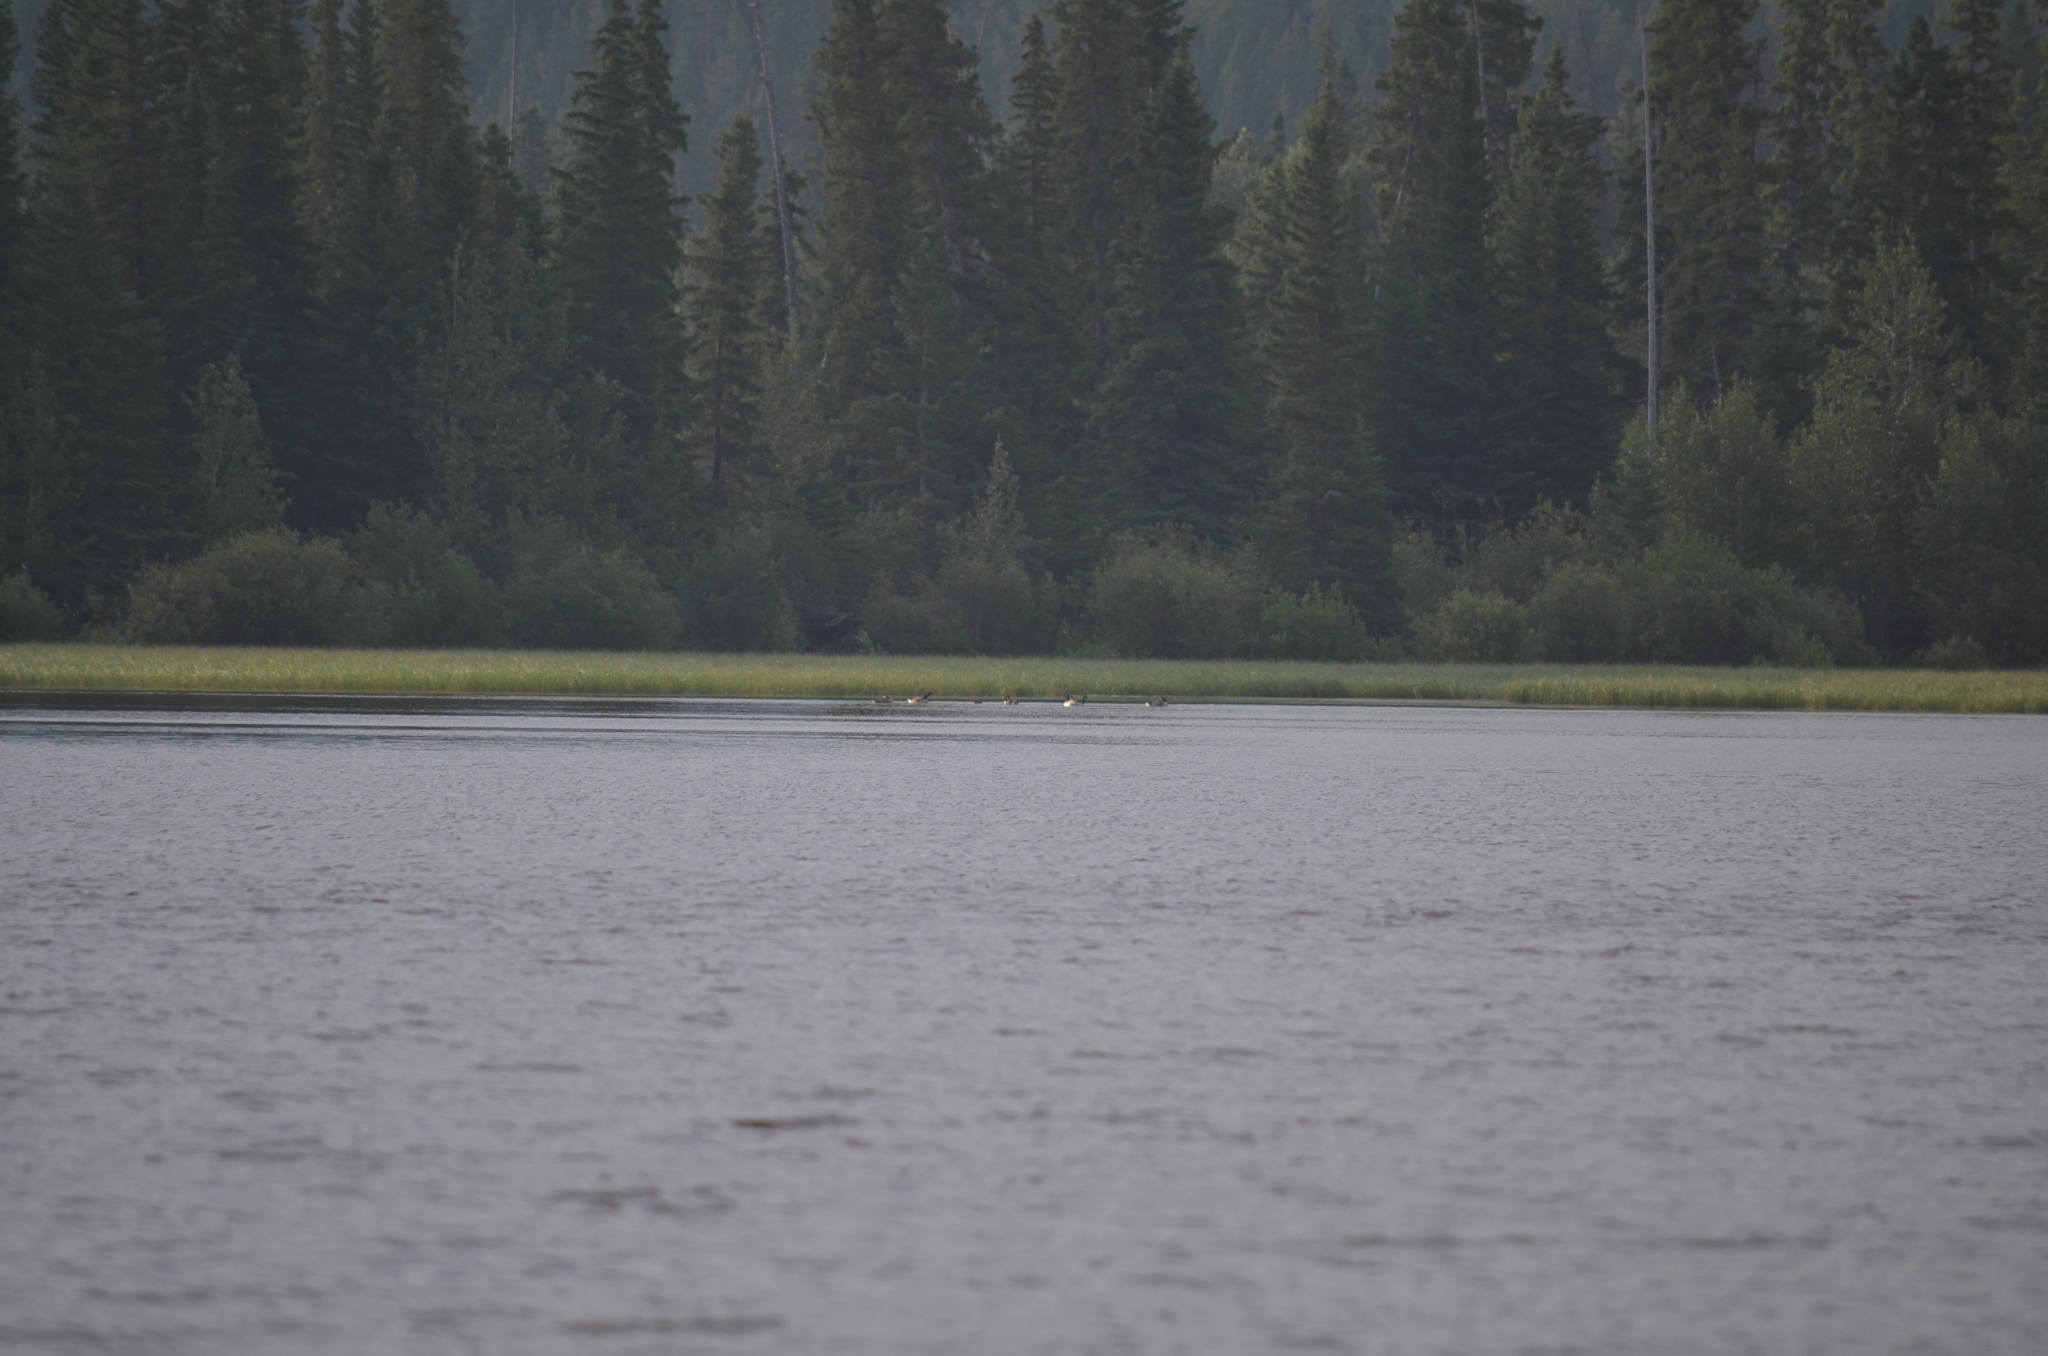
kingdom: Animalia
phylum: Chordata
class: Aves
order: Anseriformes
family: Anatidae
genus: Branta
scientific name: Branta canadensis
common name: Canada goose
